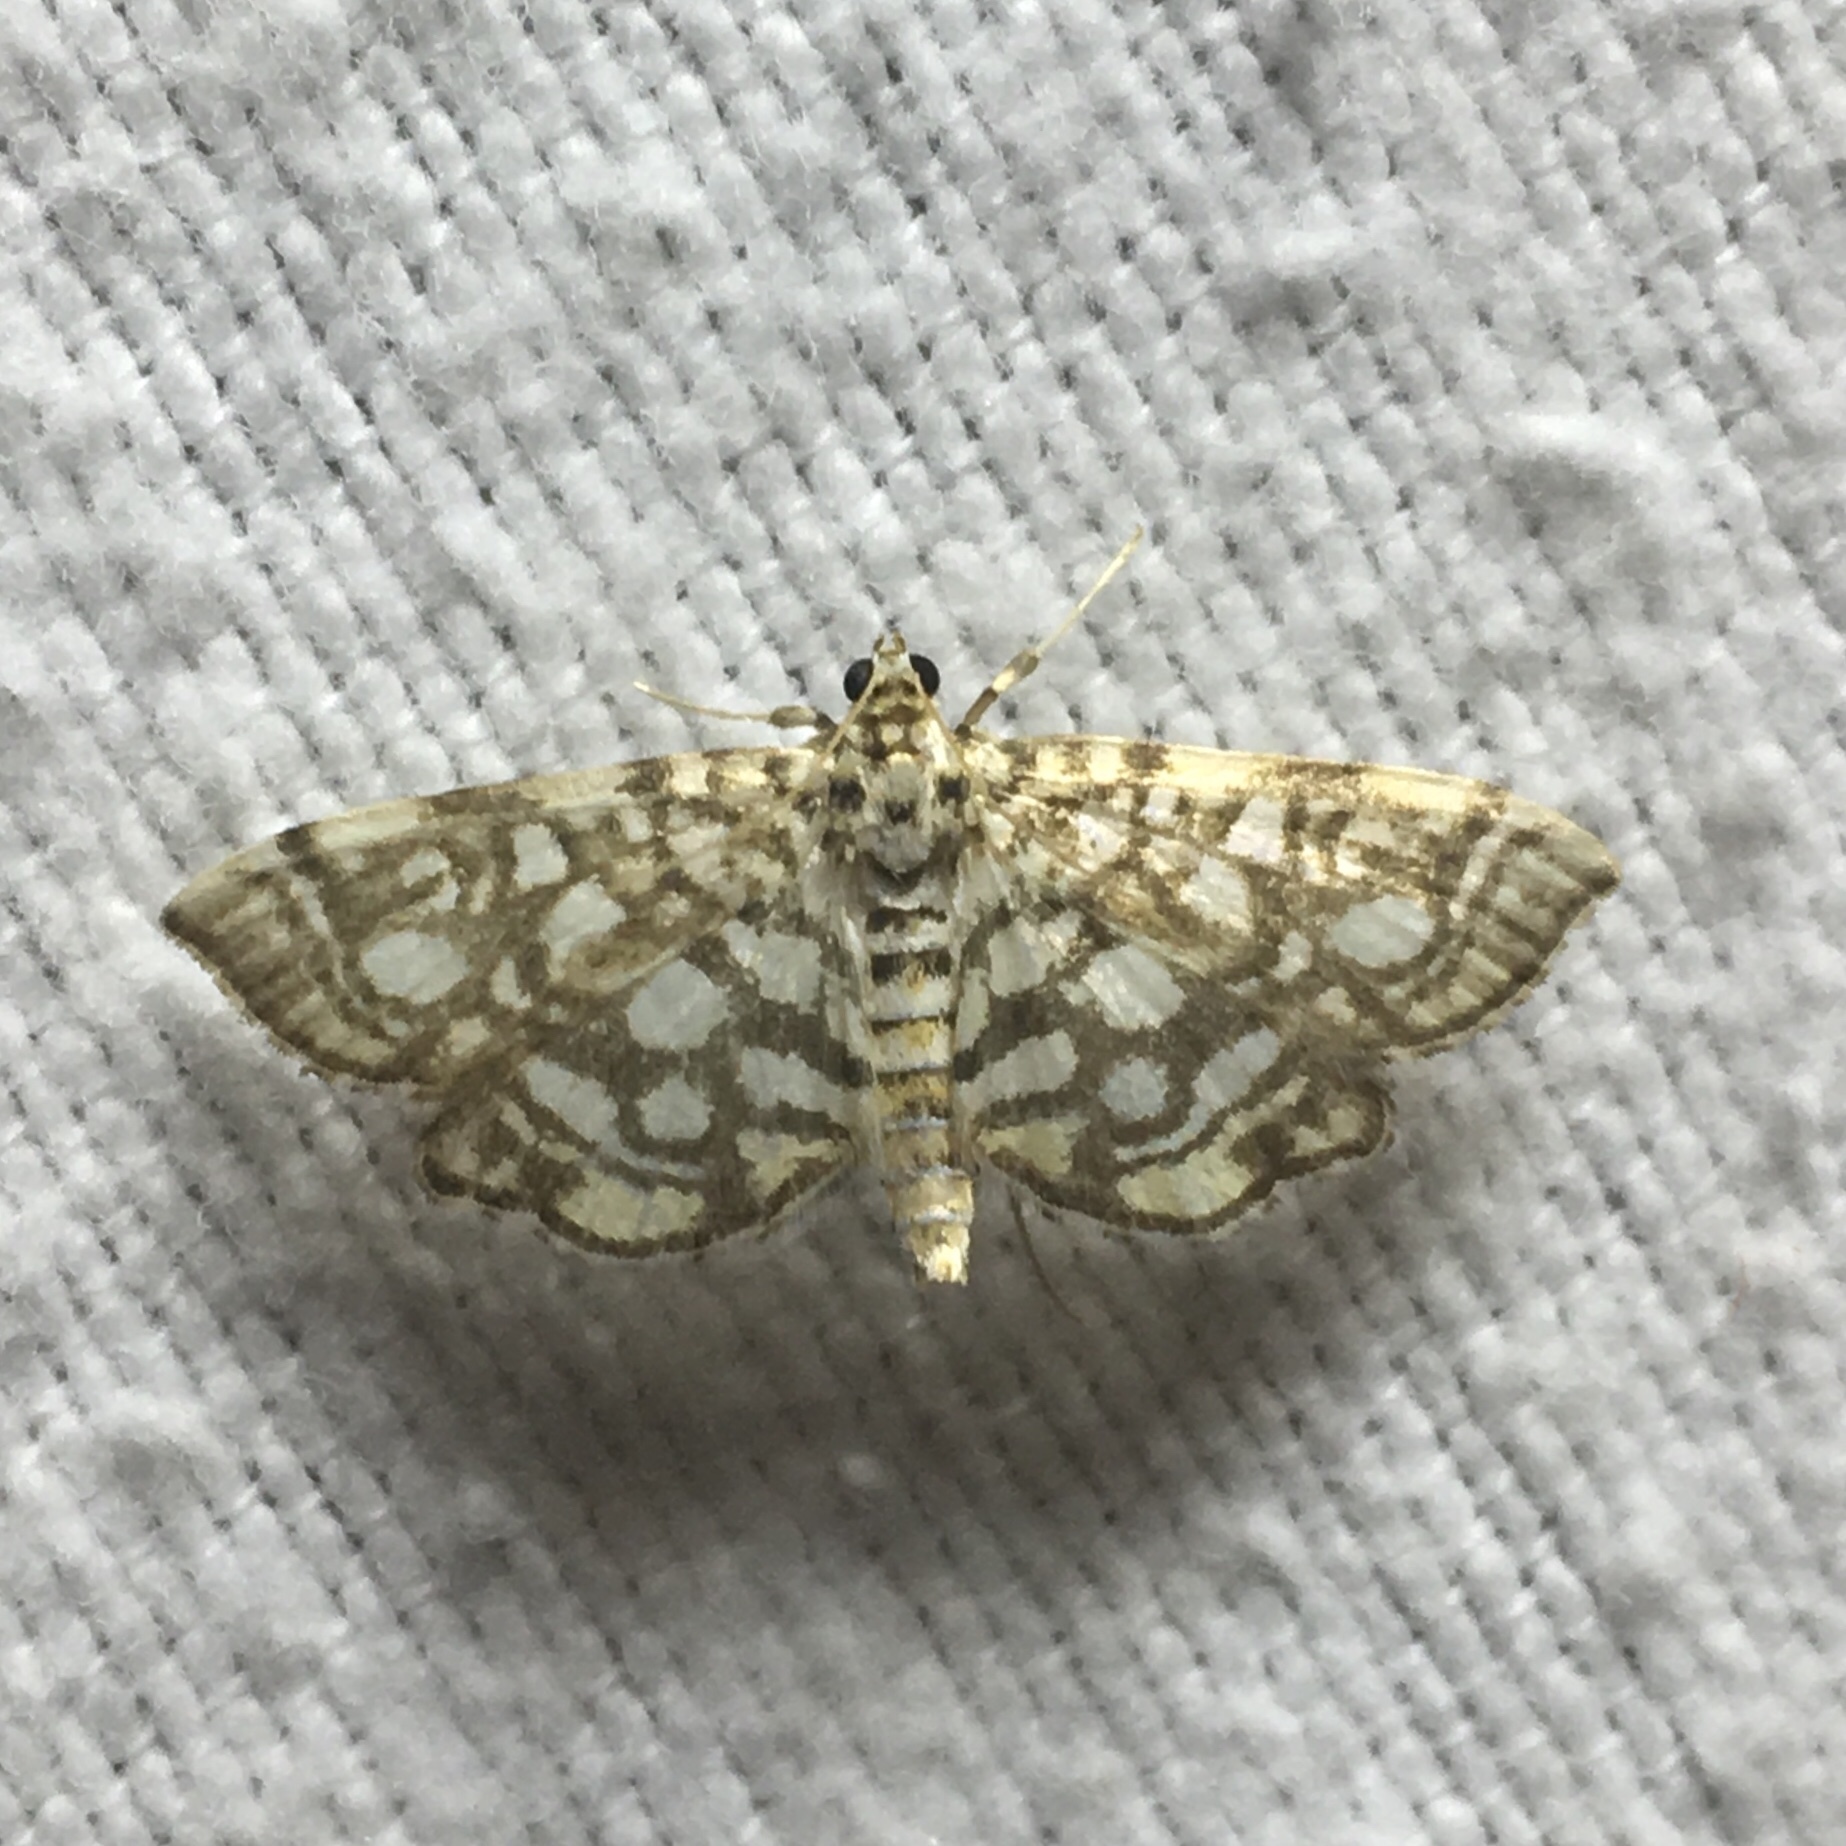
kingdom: Animalia
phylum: Arthropoda
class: Insecta
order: Lepidoptera
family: Crambidae
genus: Lygropia
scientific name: Lygropia rivulalis
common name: Bog lygropia moth
